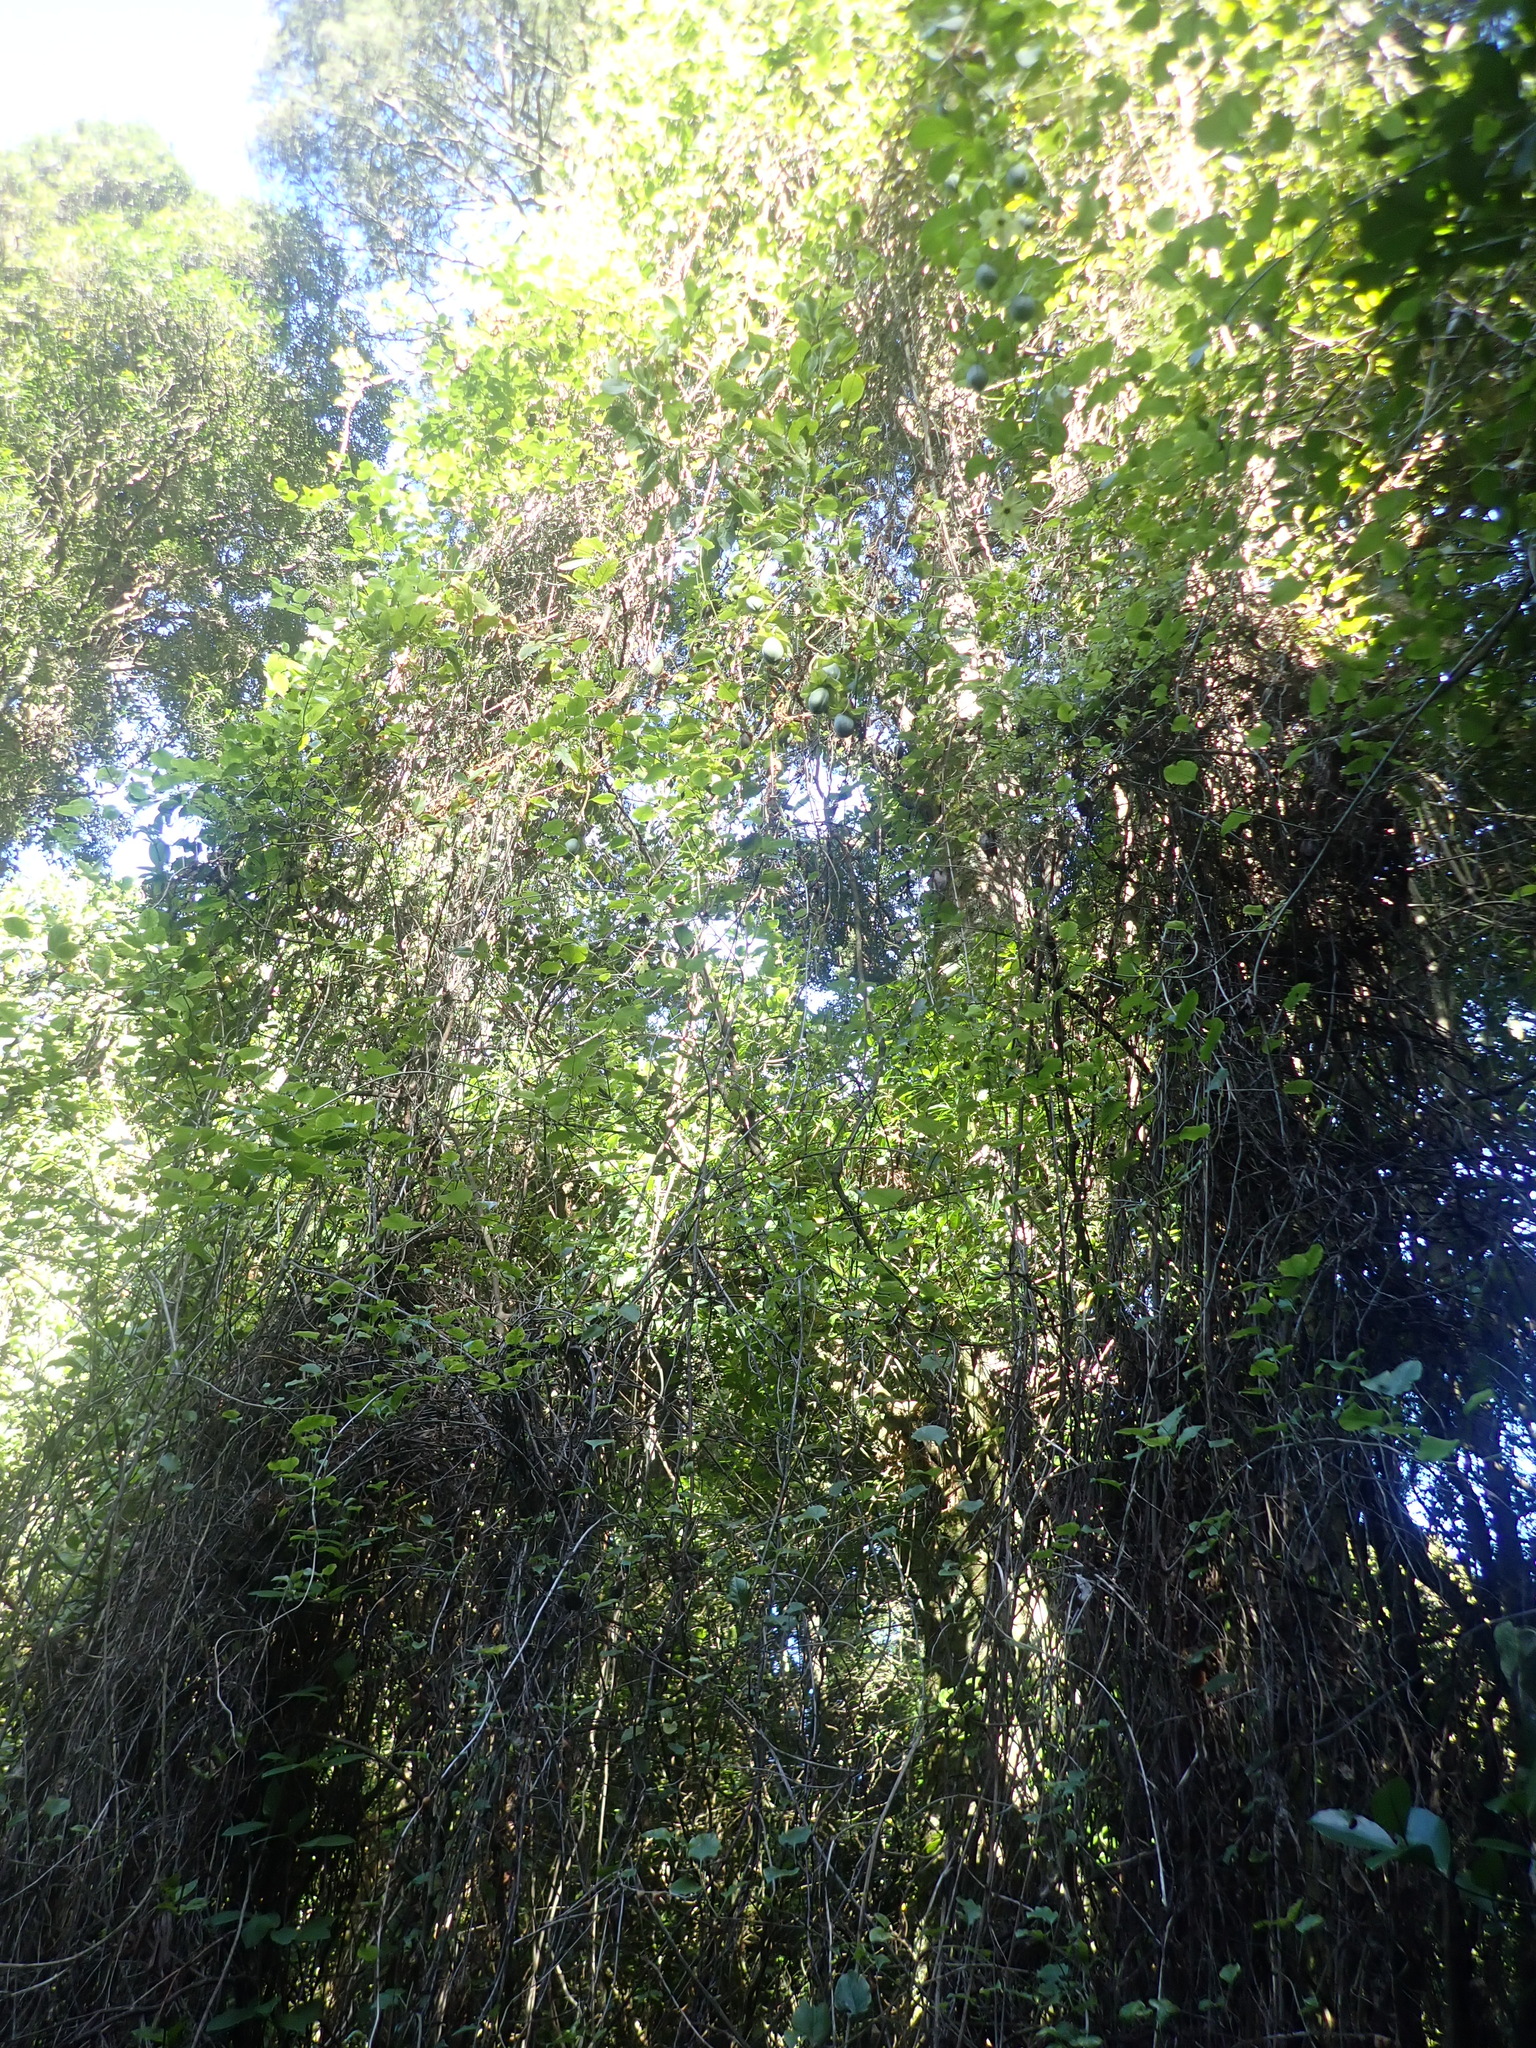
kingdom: Plantae
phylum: Tracheophyta
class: Magnoliopsida
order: Ericales
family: Polemoniaceae
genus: Cobaea
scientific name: Cobaea scandens
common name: Cup-and-saucer-vine
